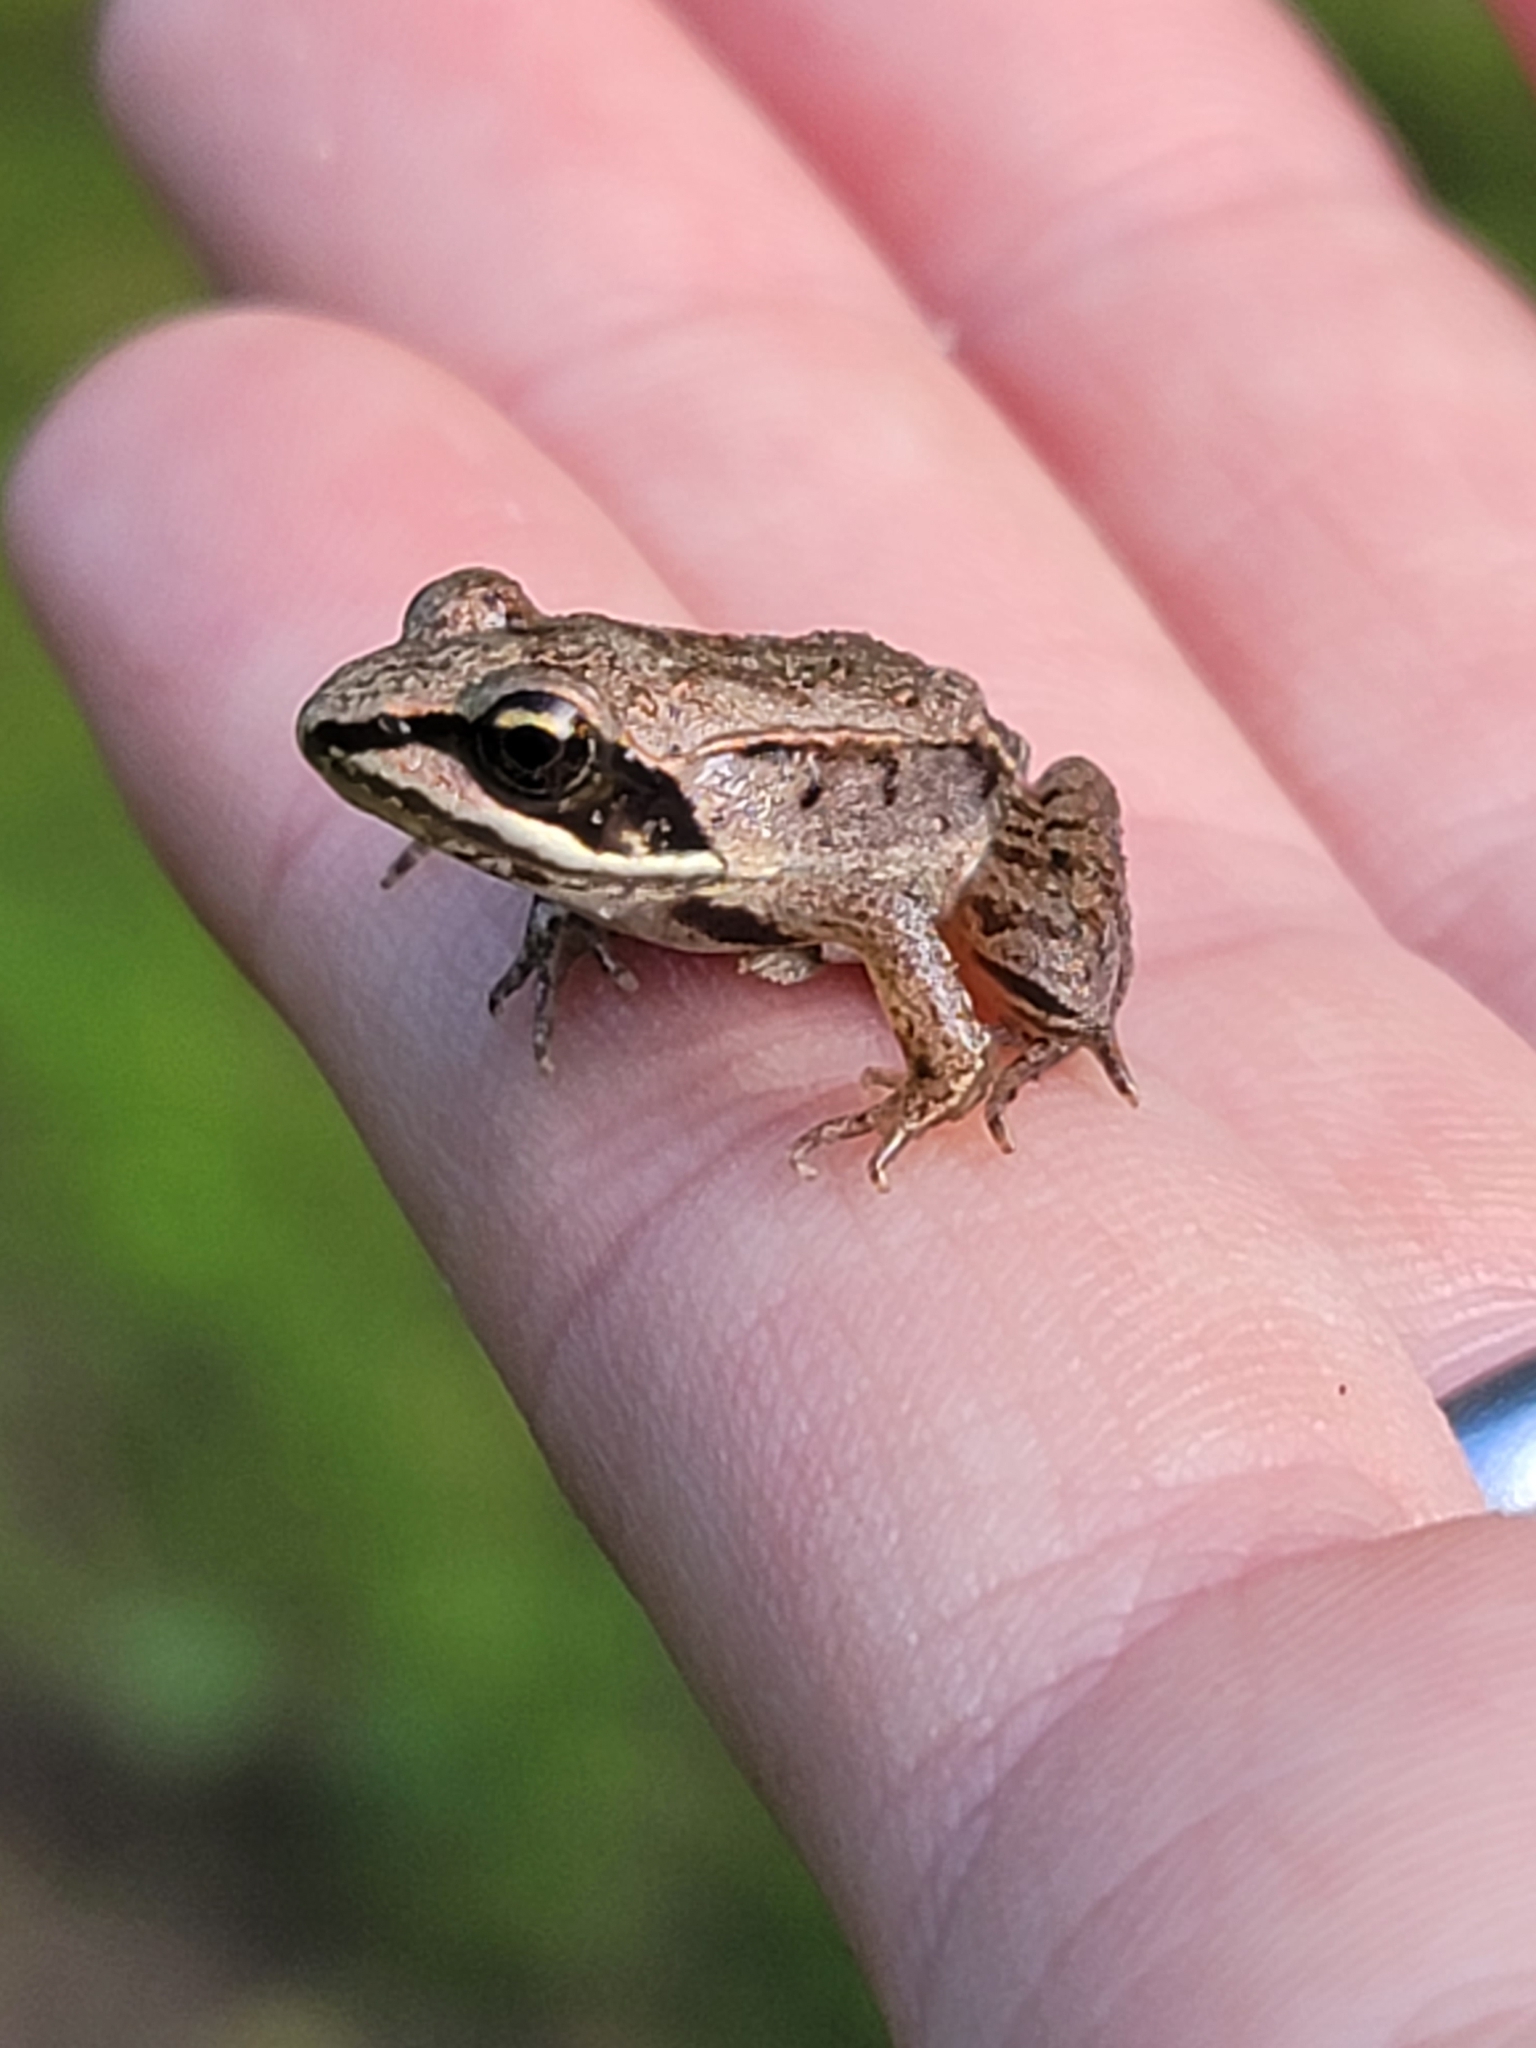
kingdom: Animalia
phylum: Chordata
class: Amphibia
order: Anura
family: Ranidae
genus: Lithobates
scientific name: Lithobates sylvaticus
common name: Wood frog
